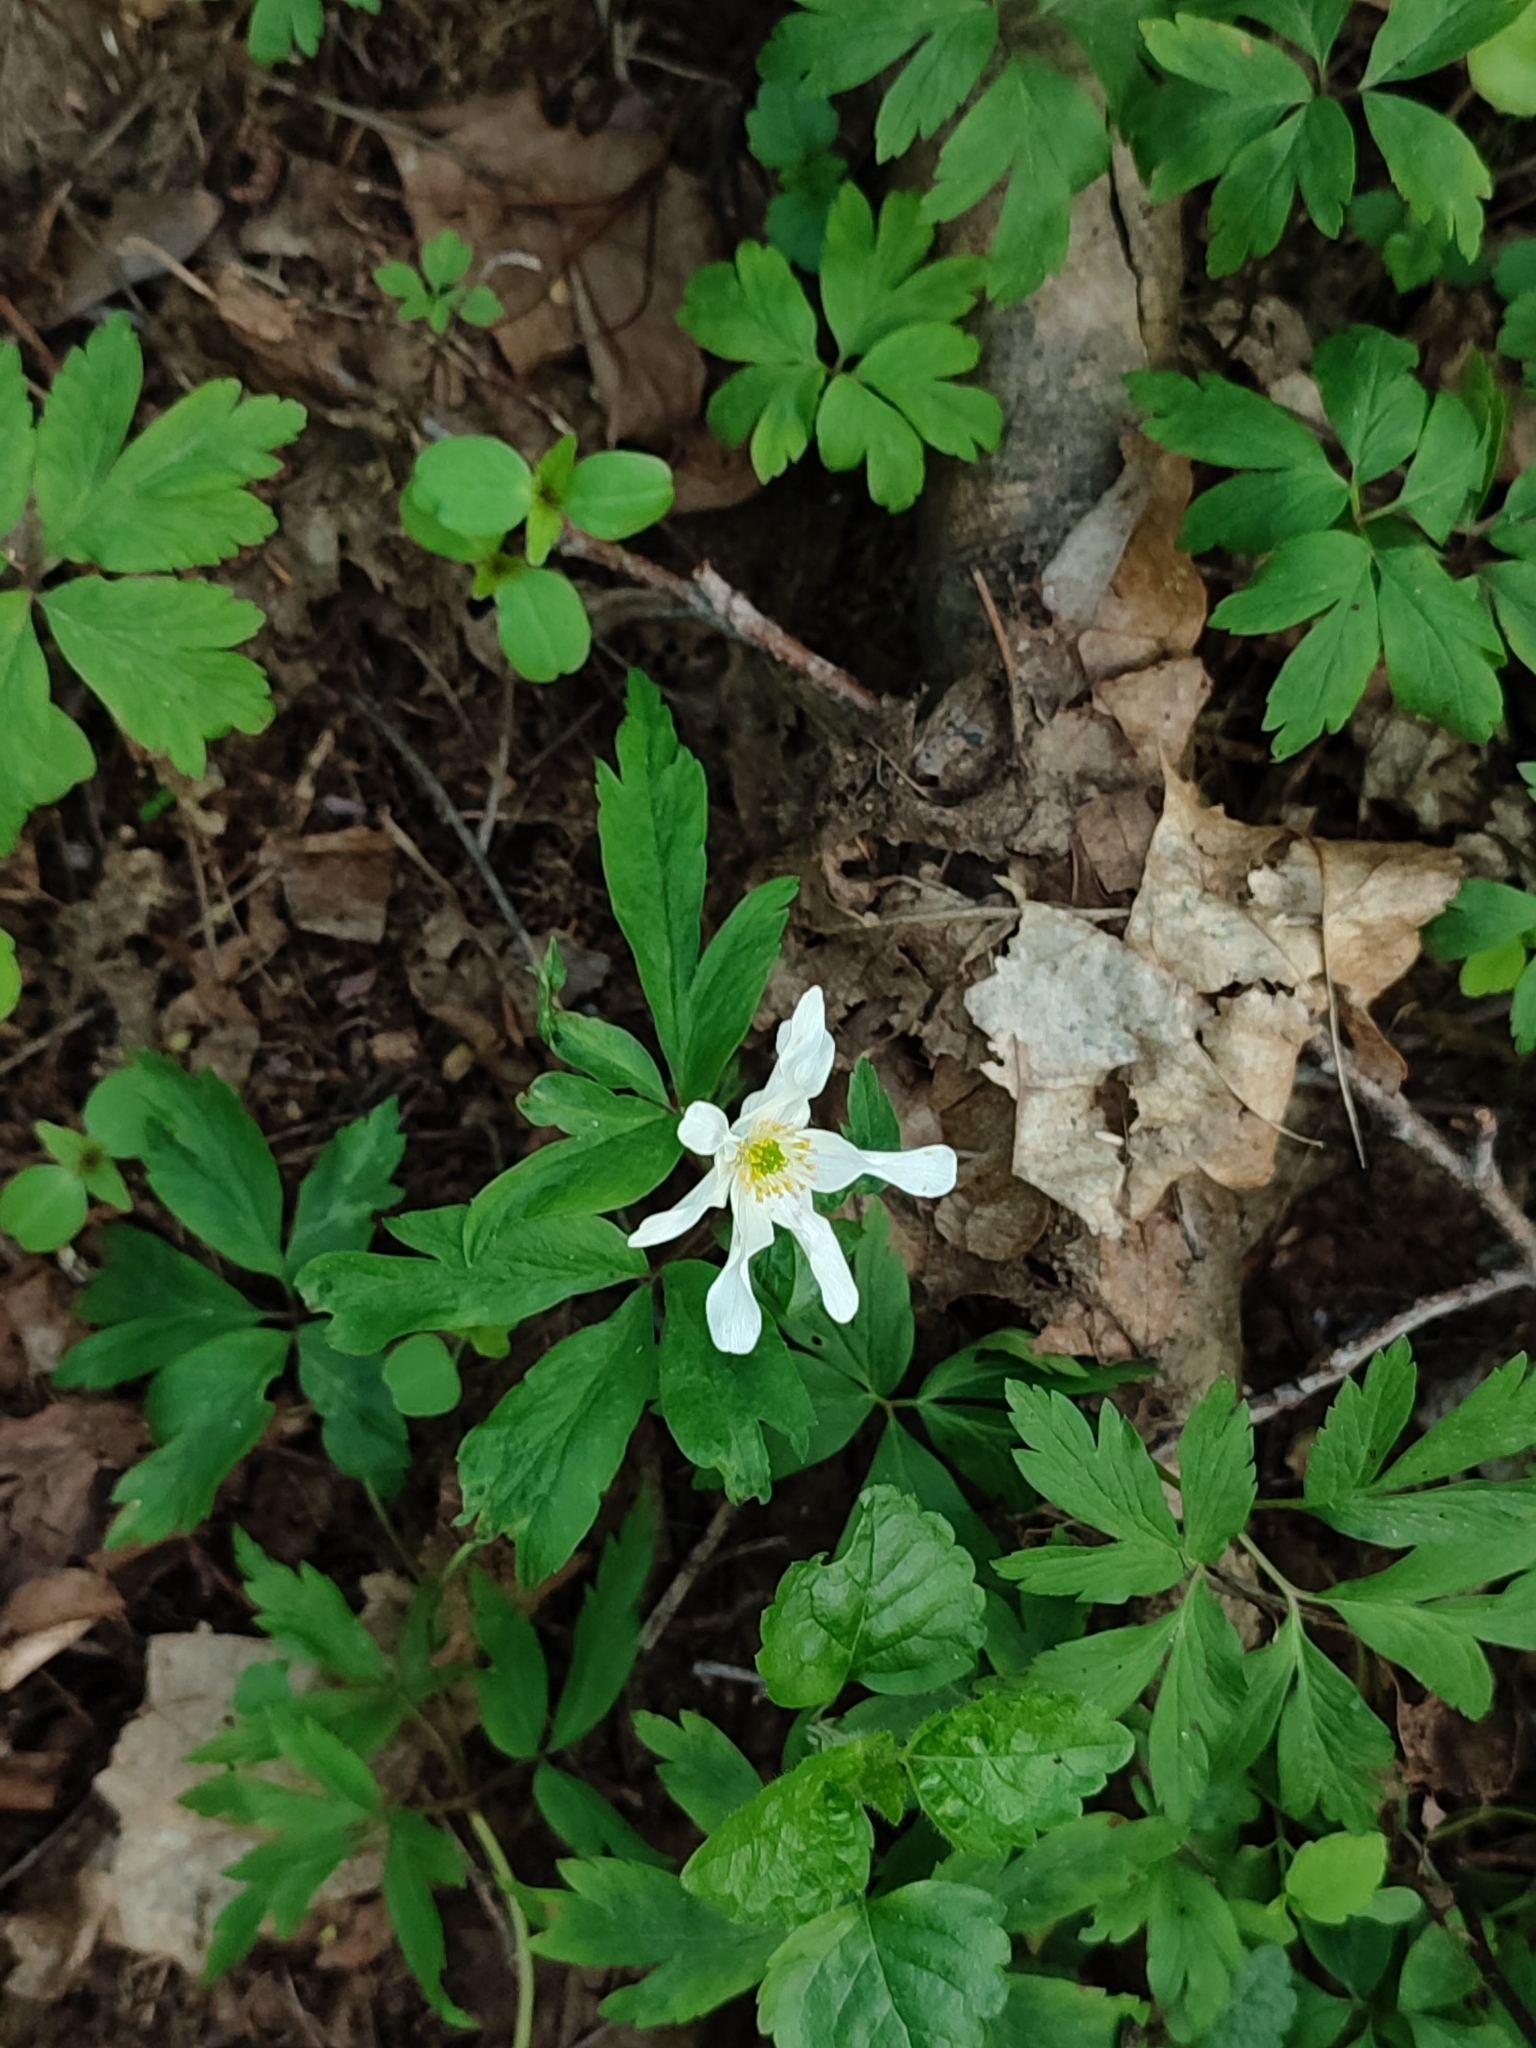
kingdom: Plantae
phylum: Tracheophyta
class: Magnoliopsida
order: Ranunculales
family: Ranunculaceae
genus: Anemone
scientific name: Anemone nemorosa
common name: Wood anemone
